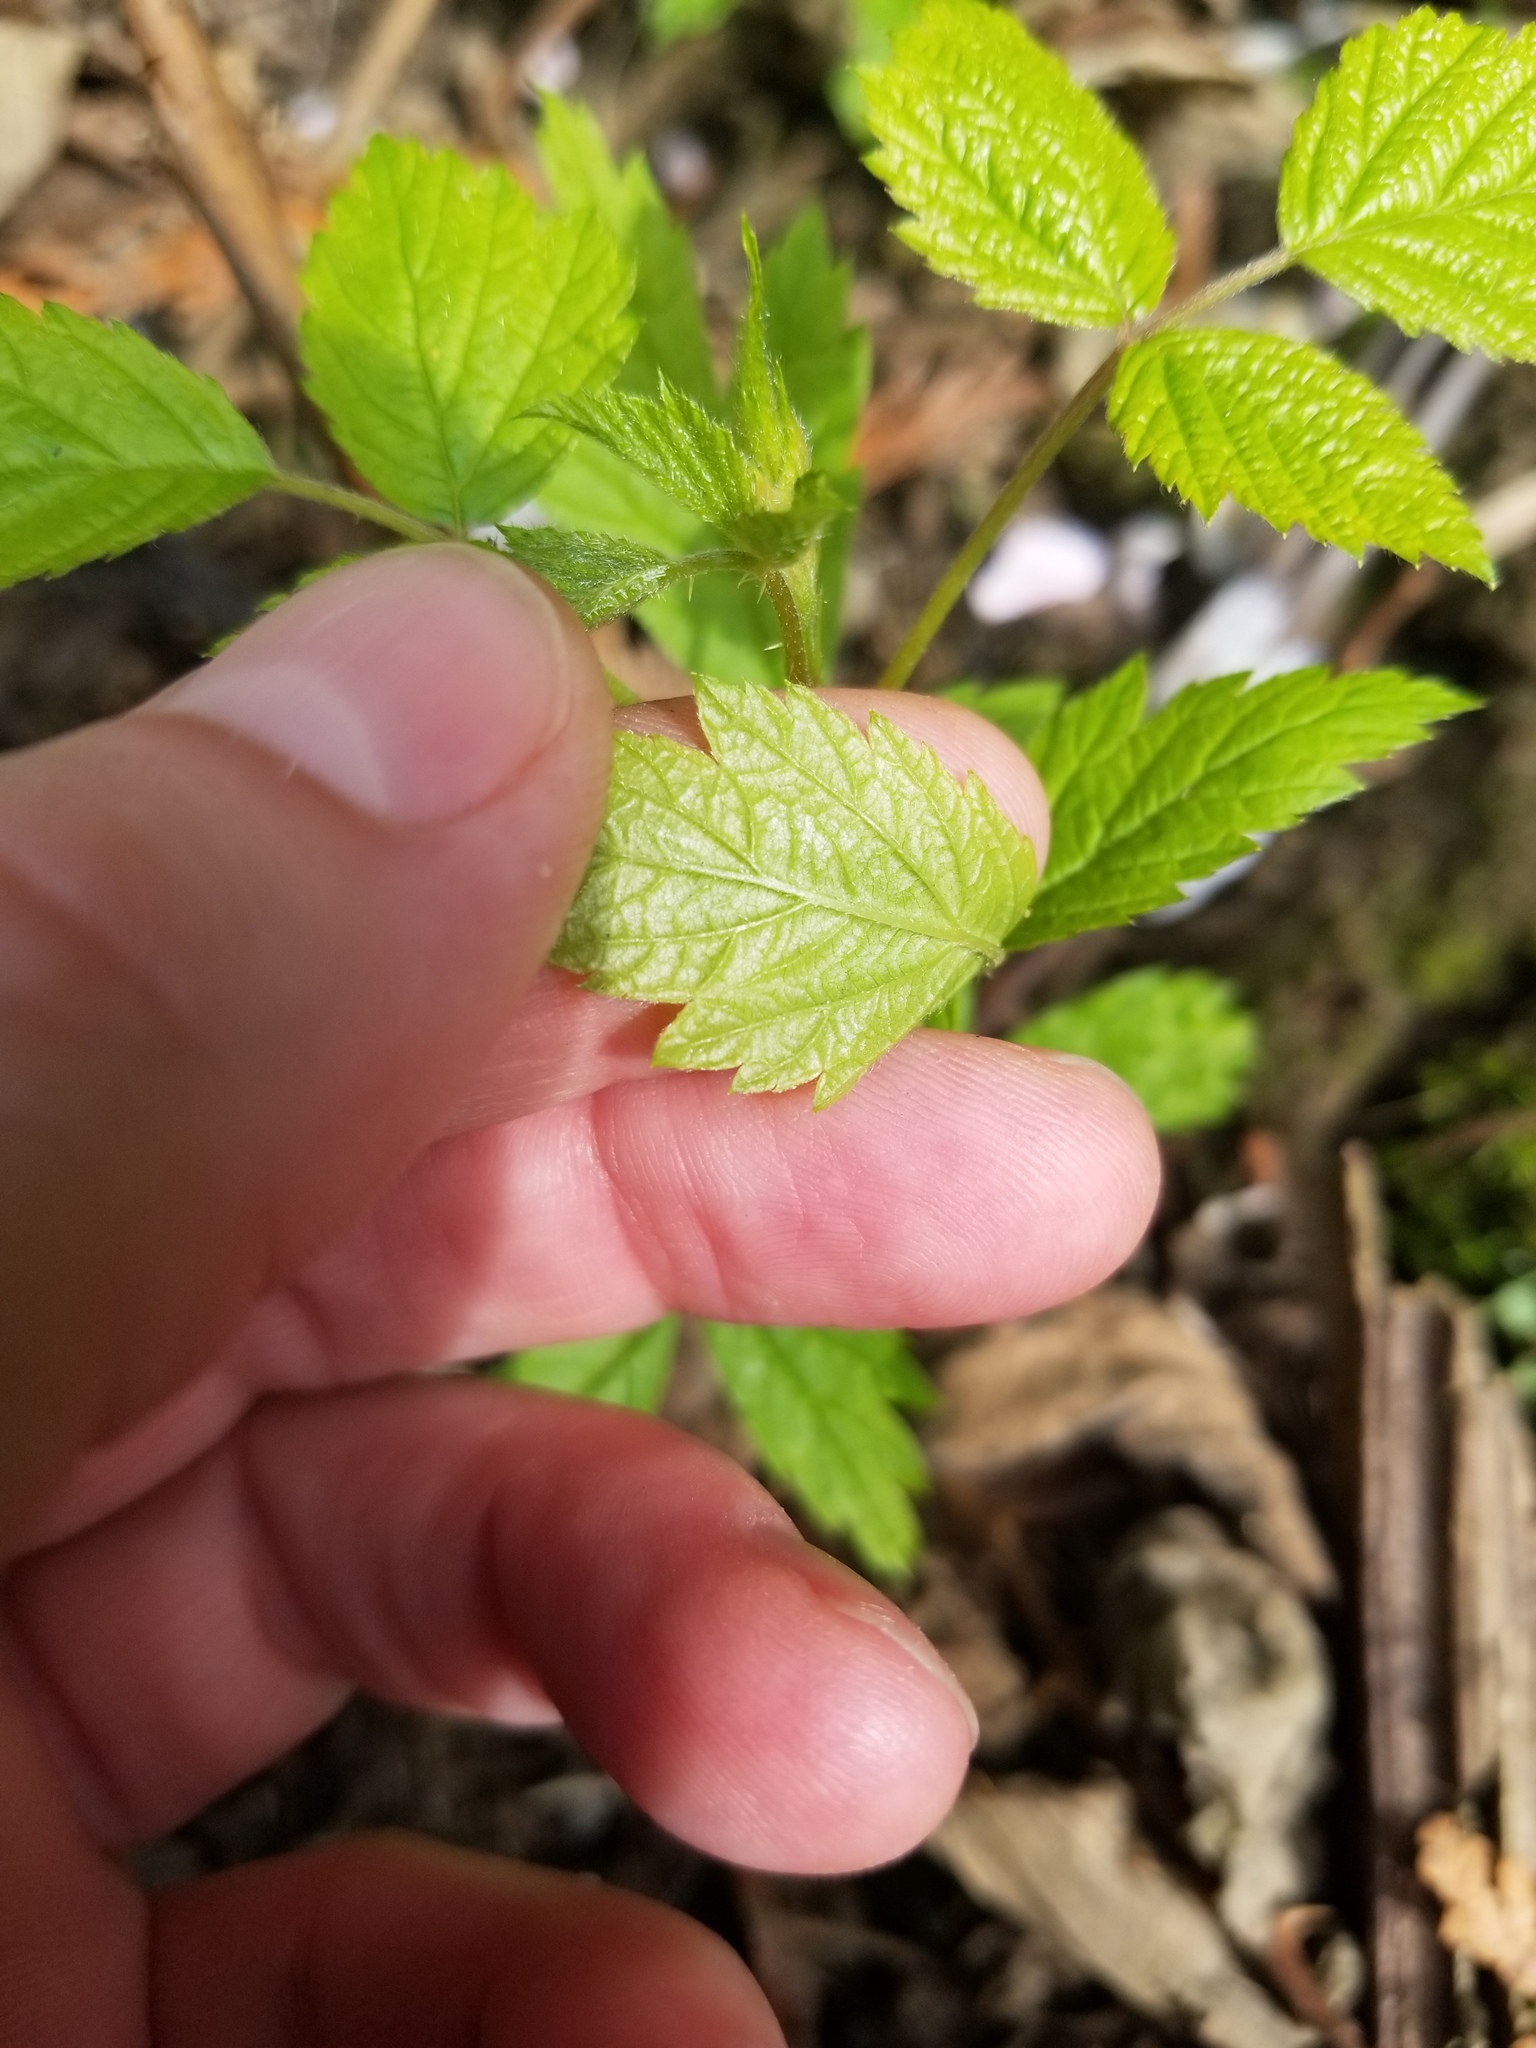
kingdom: Plantae
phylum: Tracheophyta
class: Magnoliopsida
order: Rosales
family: Rosaceae
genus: Rubus
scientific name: Rubus spectabilis
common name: Salmonberry
